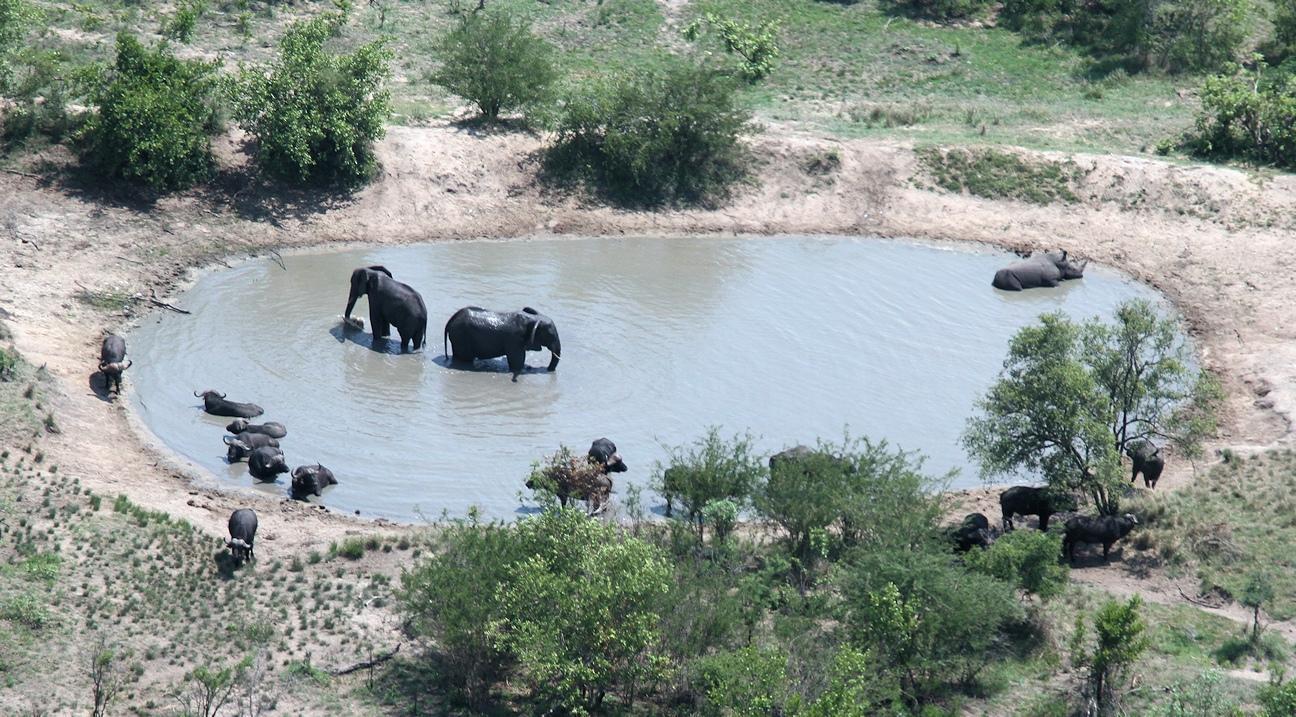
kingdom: Animalia
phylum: Chordata
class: Mammalia
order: Proboscidea
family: Elephantidae
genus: Loxodonta
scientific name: Loxodonta africana
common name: African elephant
